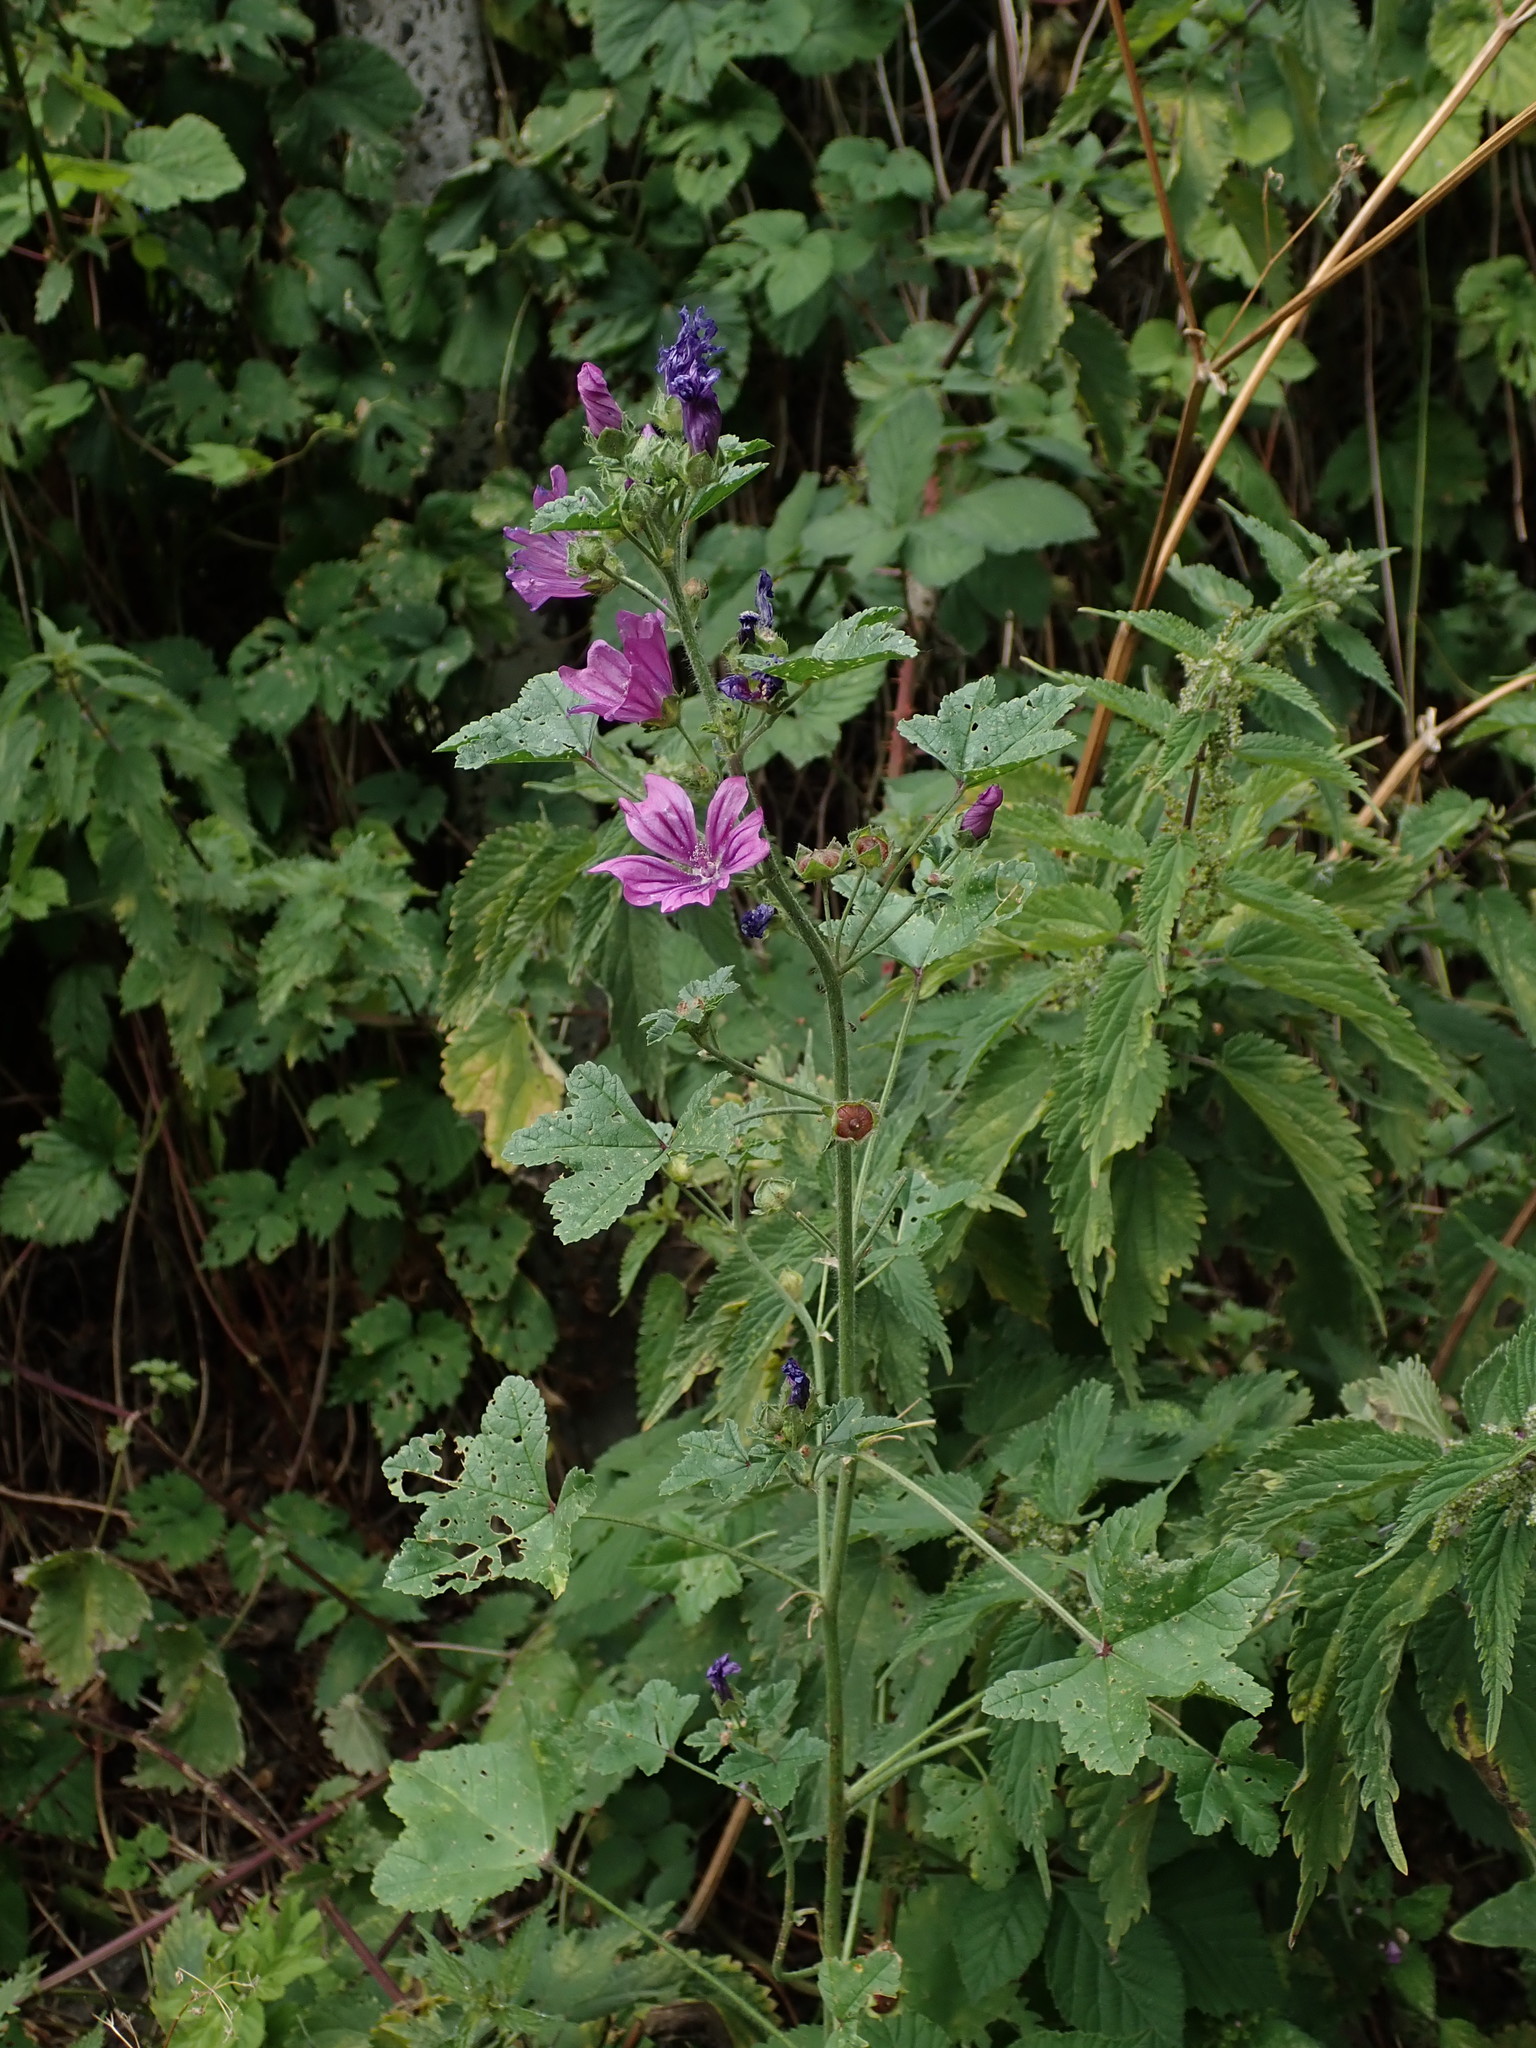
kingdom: Plantae
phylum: Tracheophyta
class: Magnoliopsida
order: Malvales
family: Malvaceae
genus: Malva
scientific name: Malva sylvestris
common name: Common mallow
